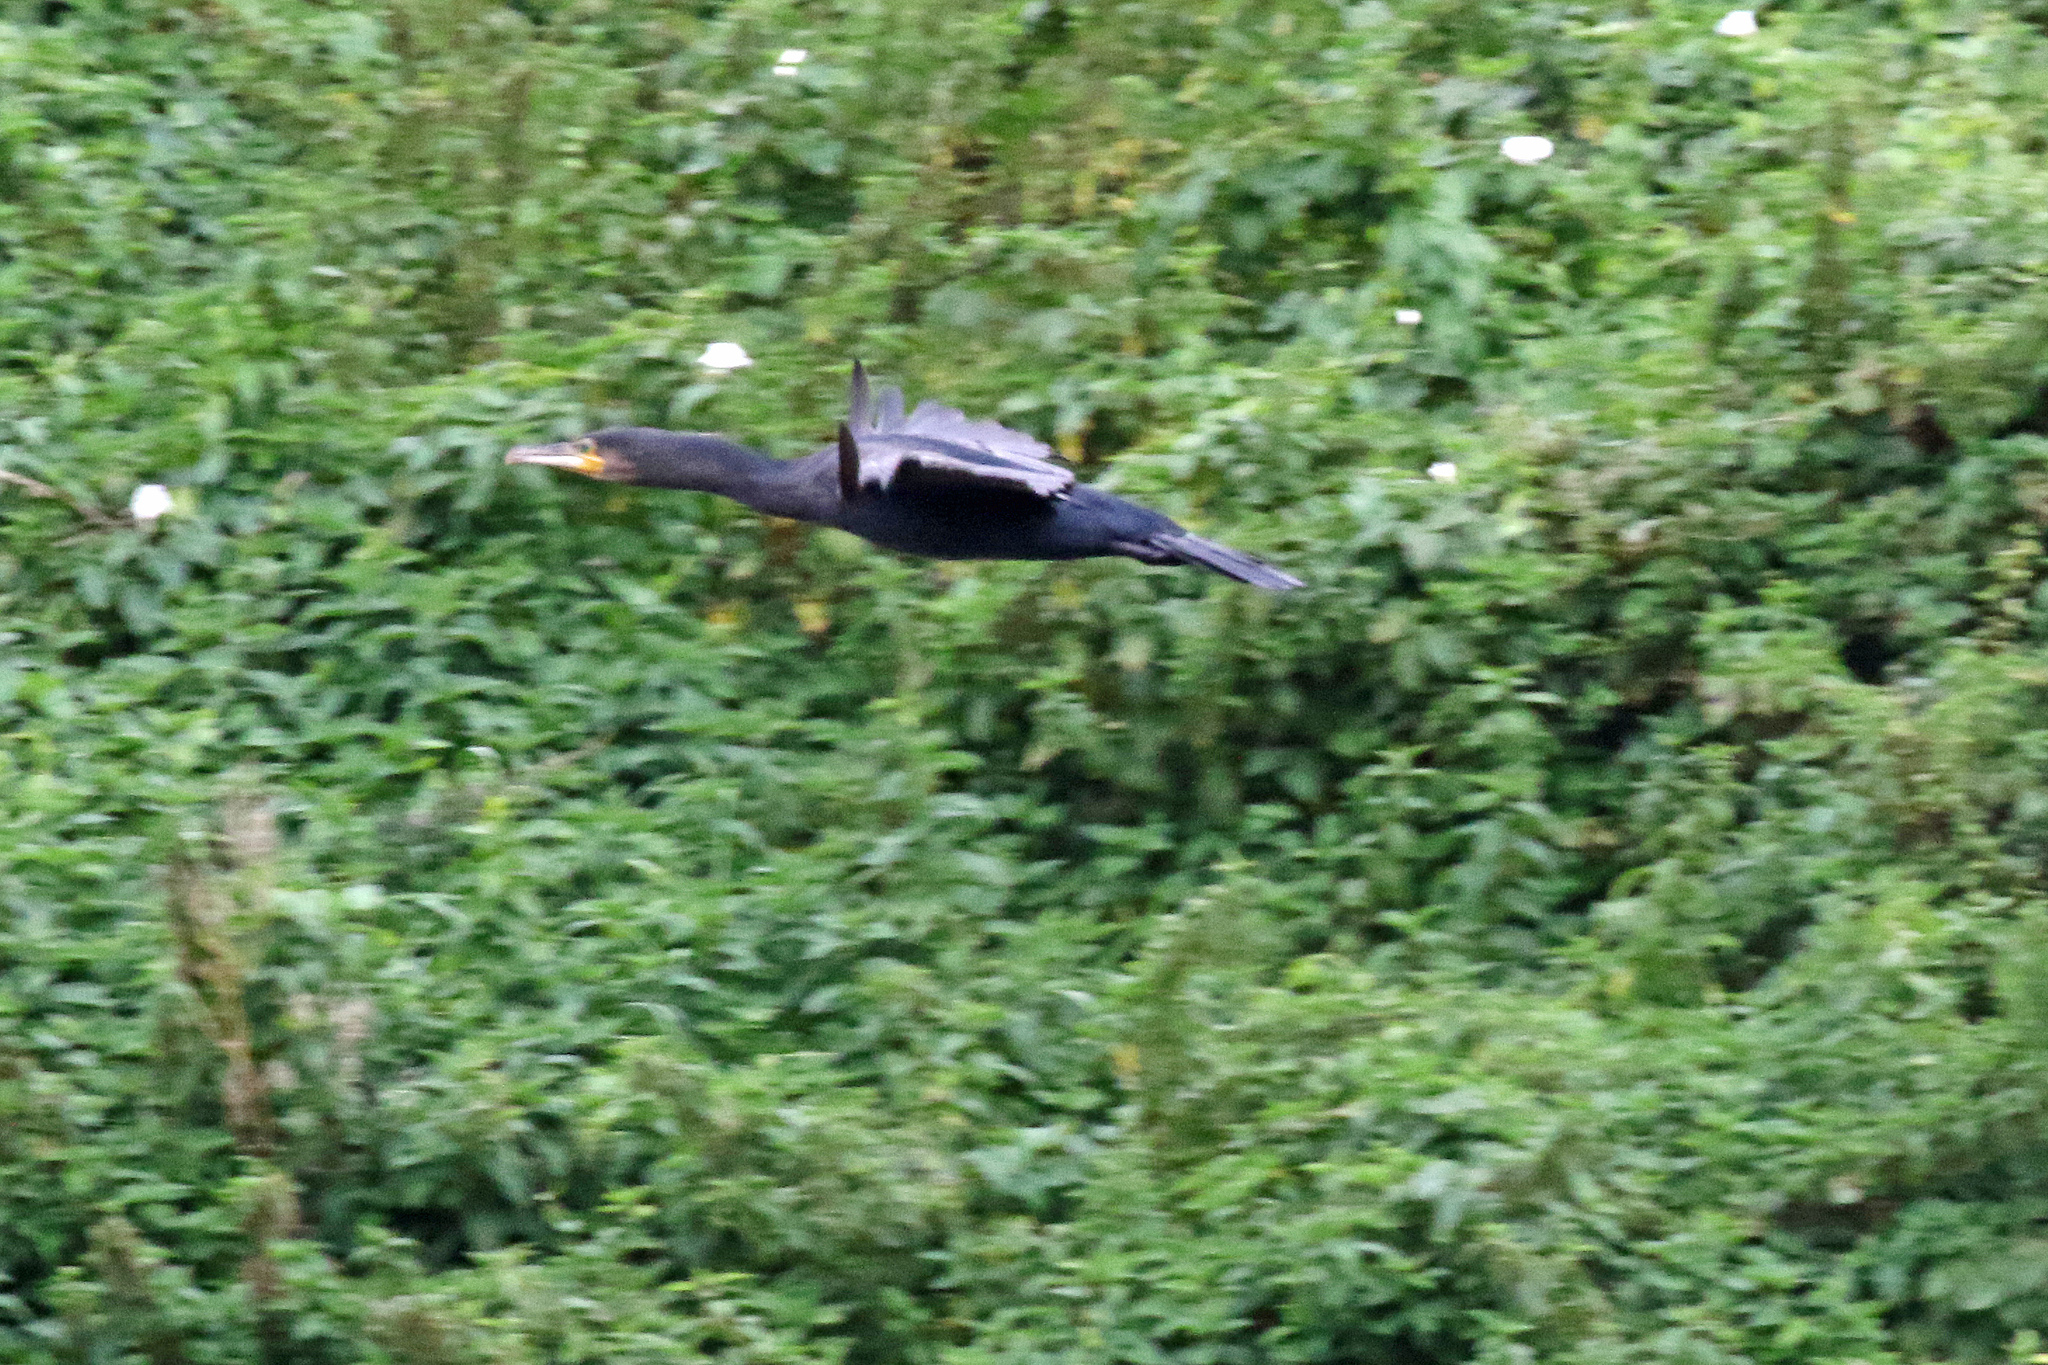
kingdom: Animalia
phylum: Chordata
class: Aves
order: Suliformes
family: Phalacrocoracidae
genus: Phalacrocorax
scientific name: Phalacrocorax carbo
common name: Great cormorant
